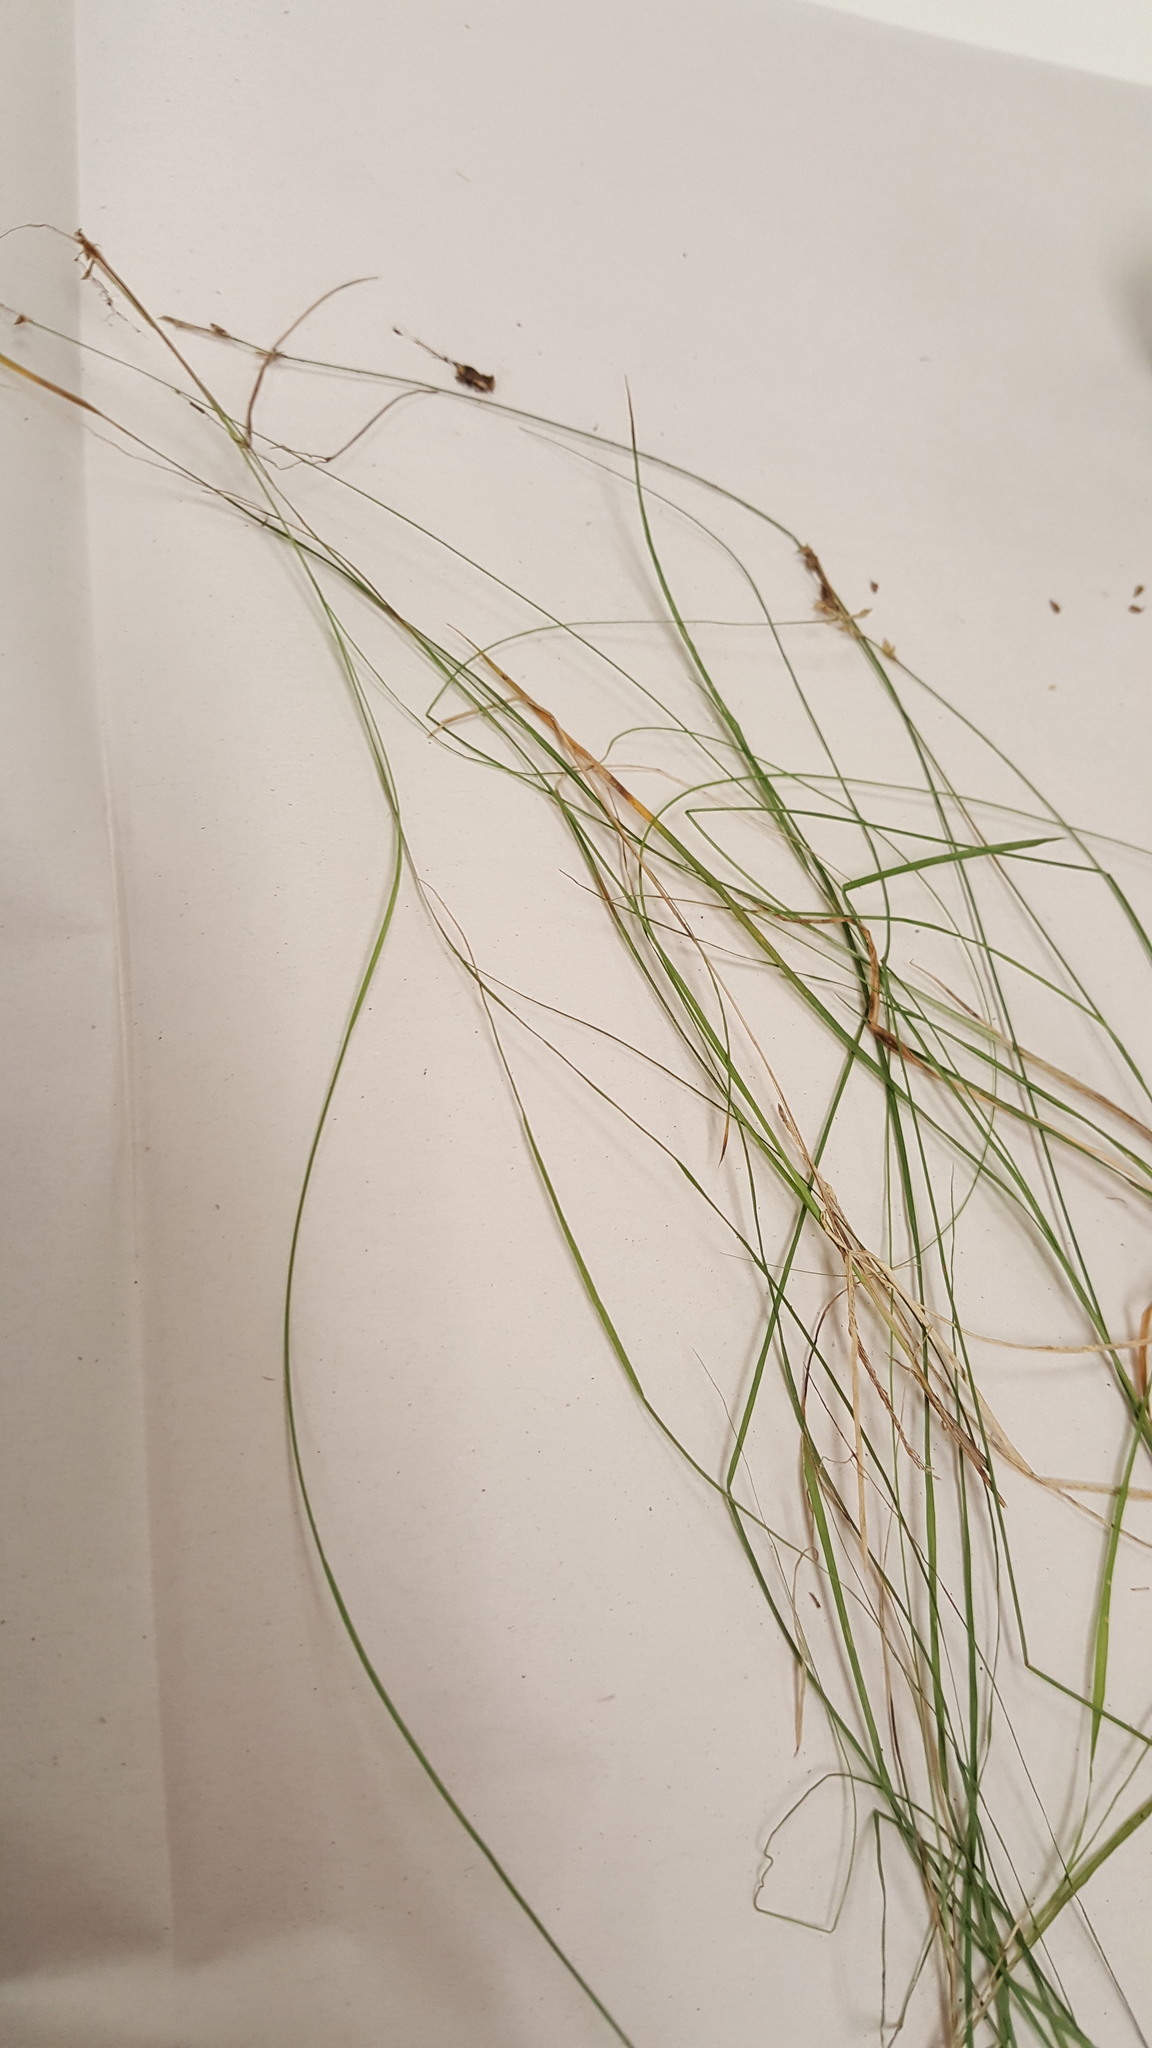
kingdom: Plantae
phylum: Tracheophyta
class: Liliopsida
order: Poales
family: Cyperaceae
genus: Carex
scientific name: Carex interior
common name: Inland sedge
